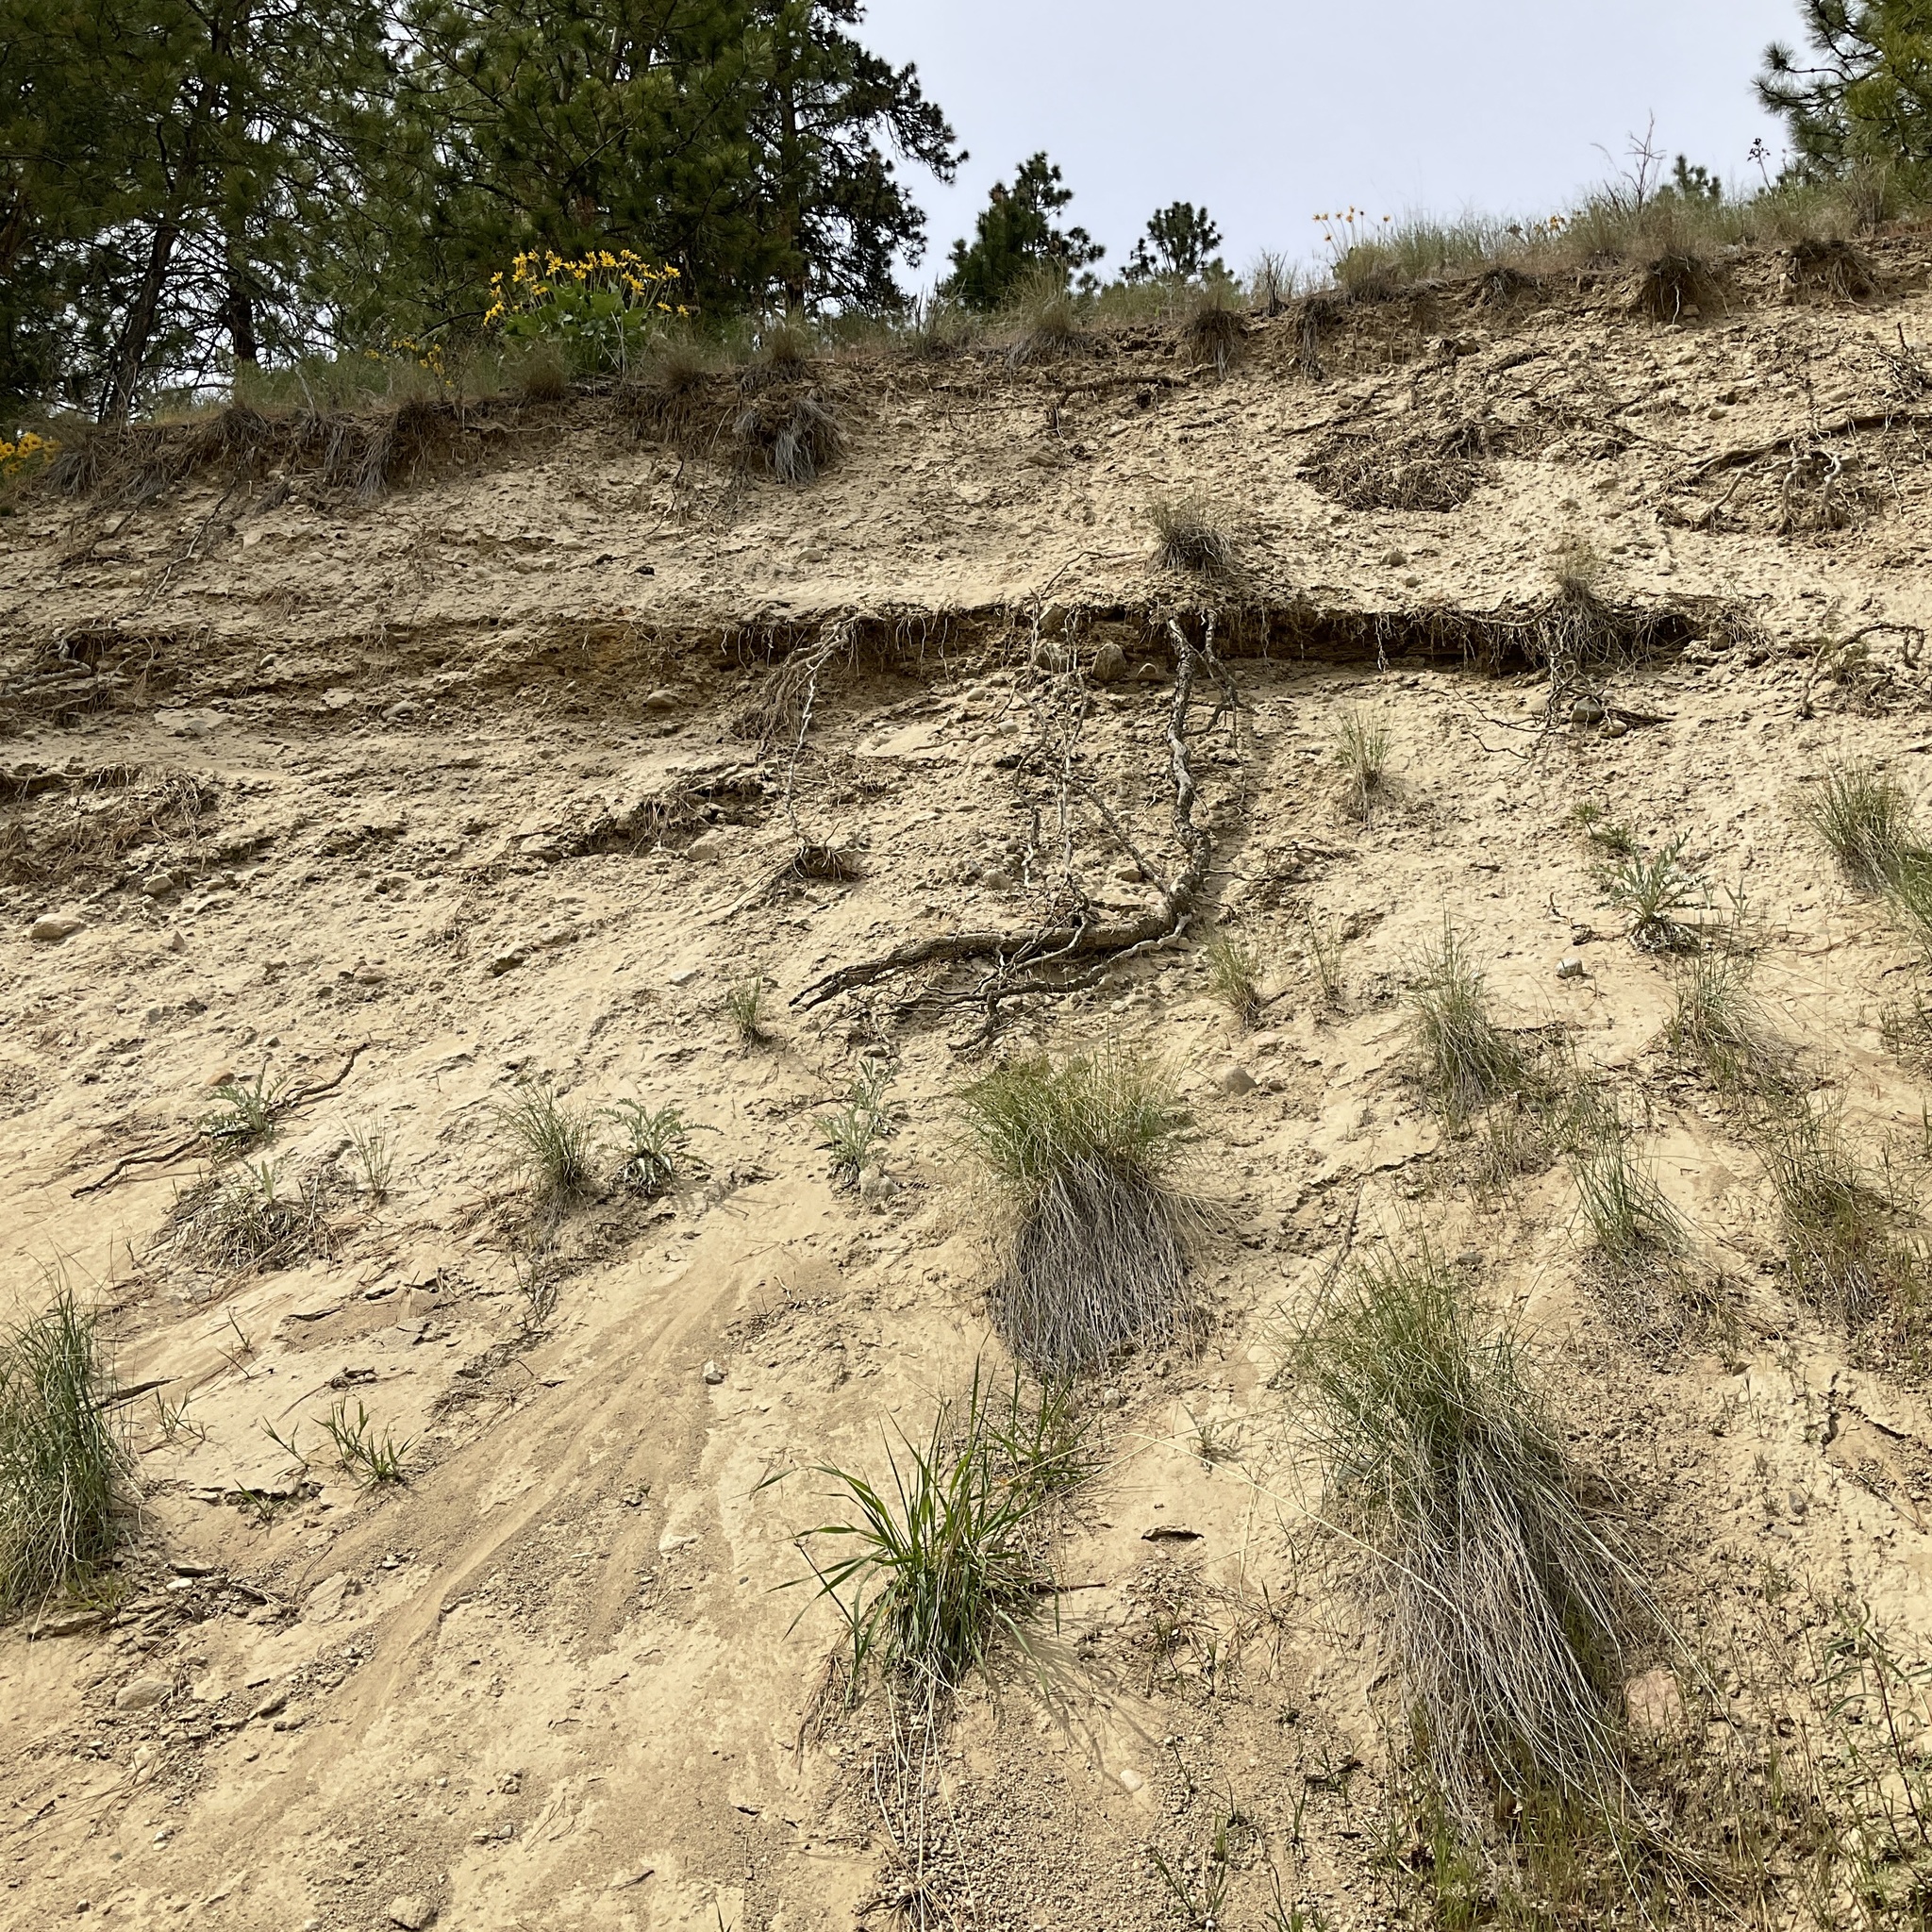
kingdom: Plantae
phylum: Tracheophyta
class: Magnoliopsida
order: Asterales
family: Asteraceae
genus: Cirsium
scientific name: Cirsium undulatum
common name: Pasture thistle
